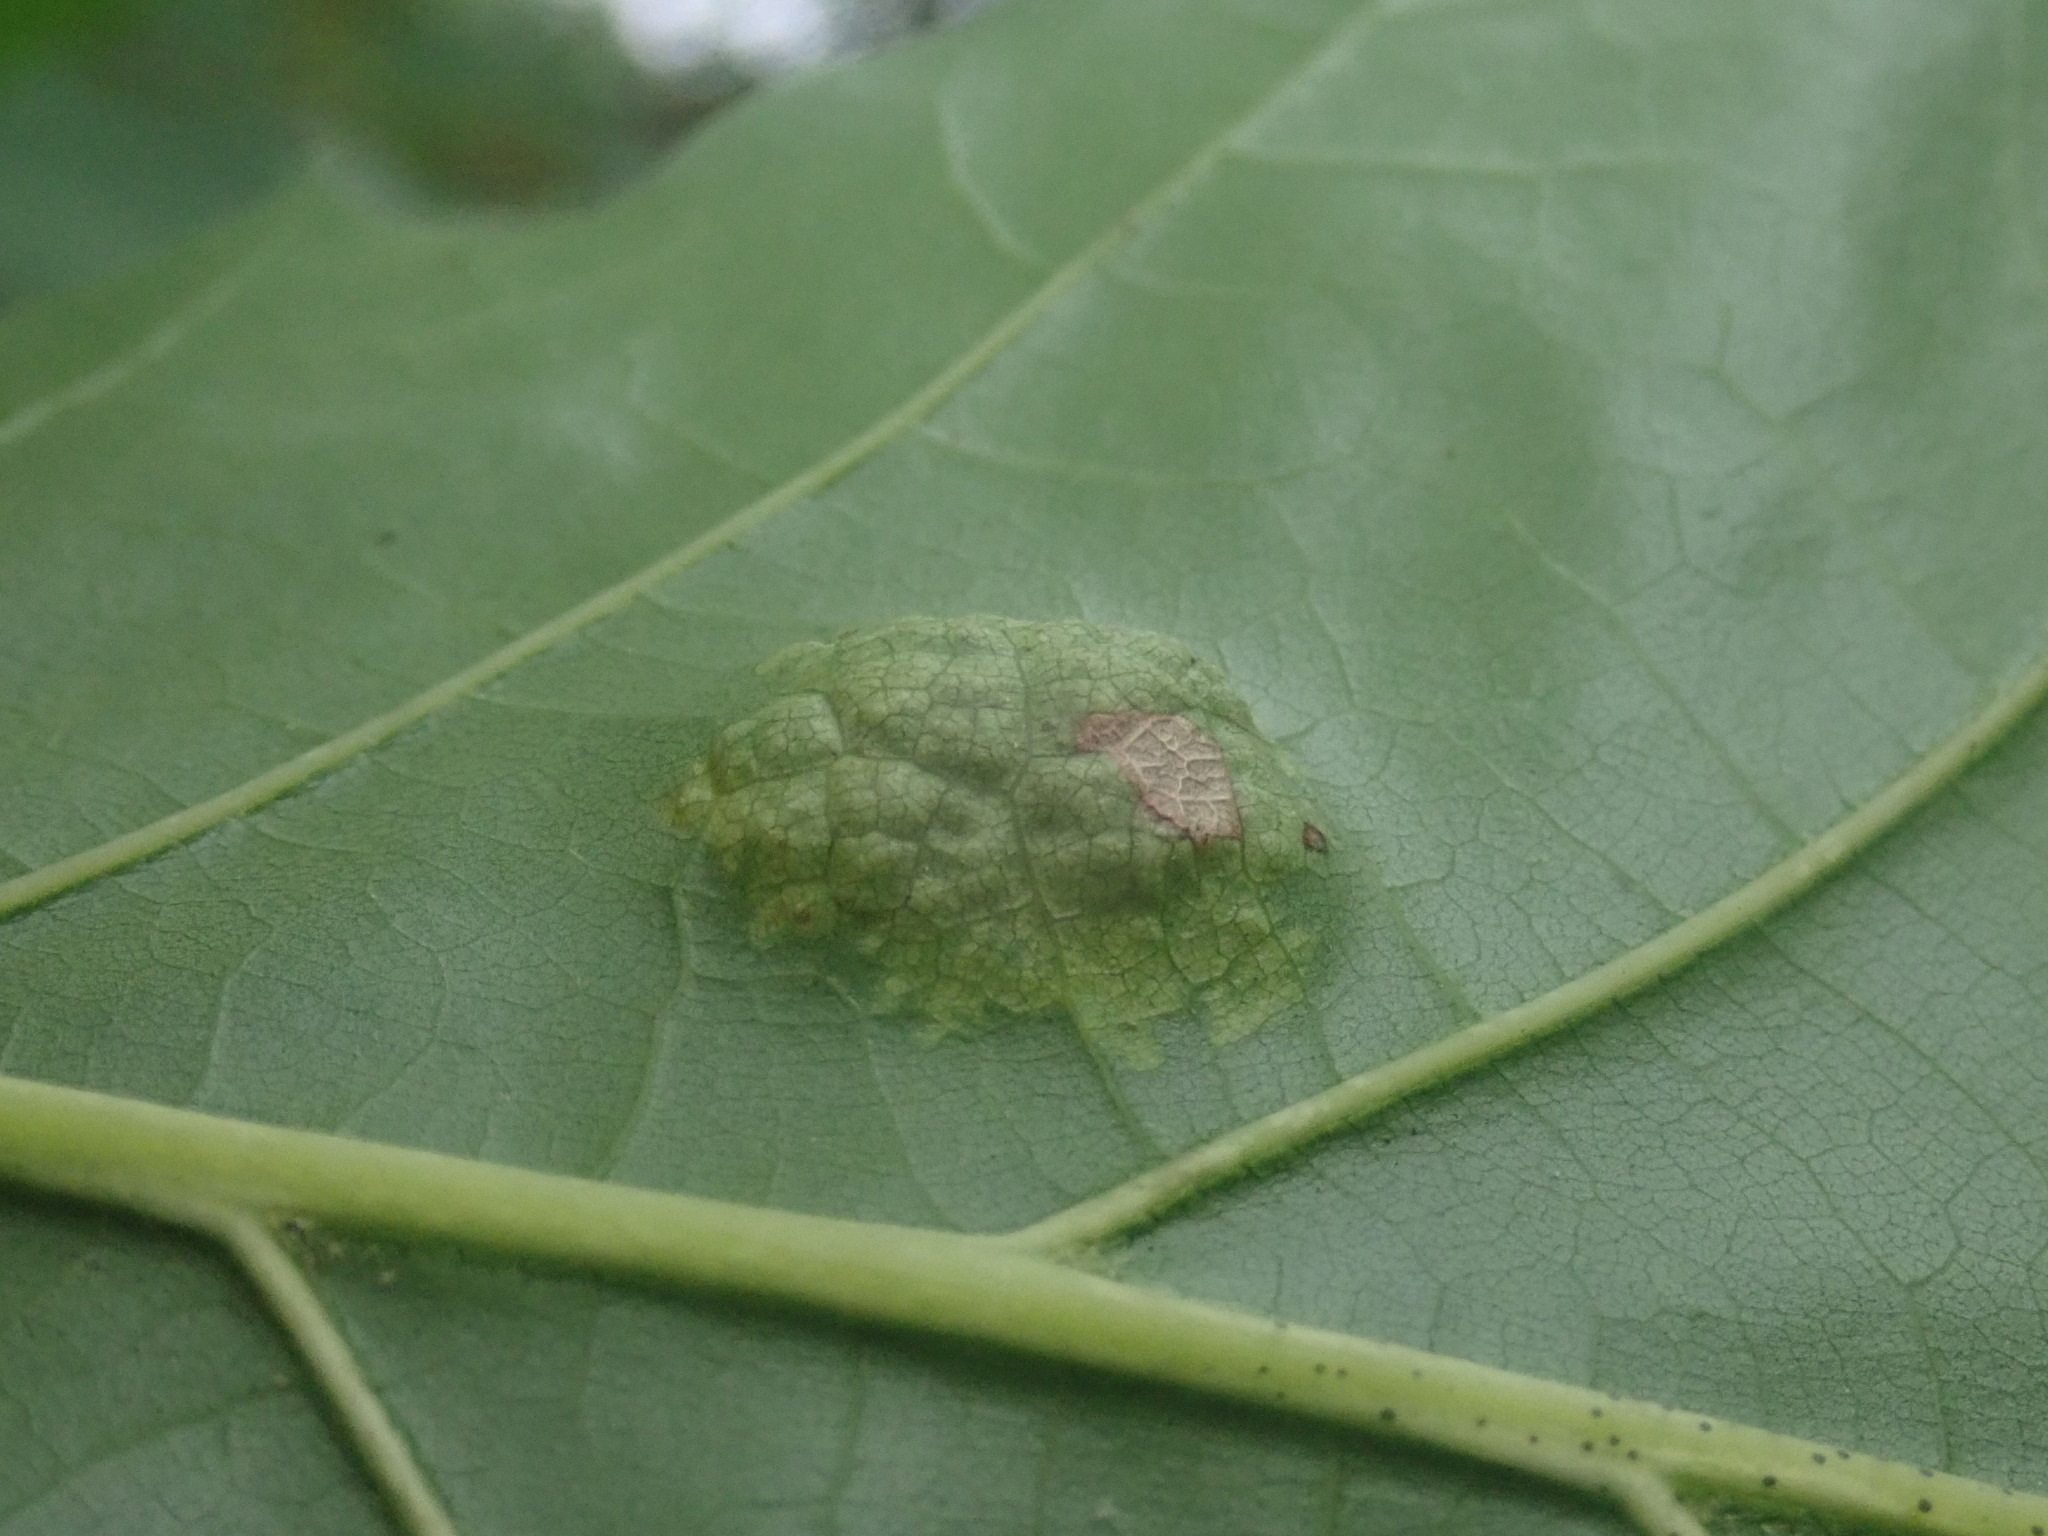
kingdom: Fungi
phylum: Ascomycota
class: Taphrinomycetes
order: Taphrinales
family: Taphrinaceae
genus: Taphrina
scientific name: Taphrina caerulescens
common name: Oak leaf blister
